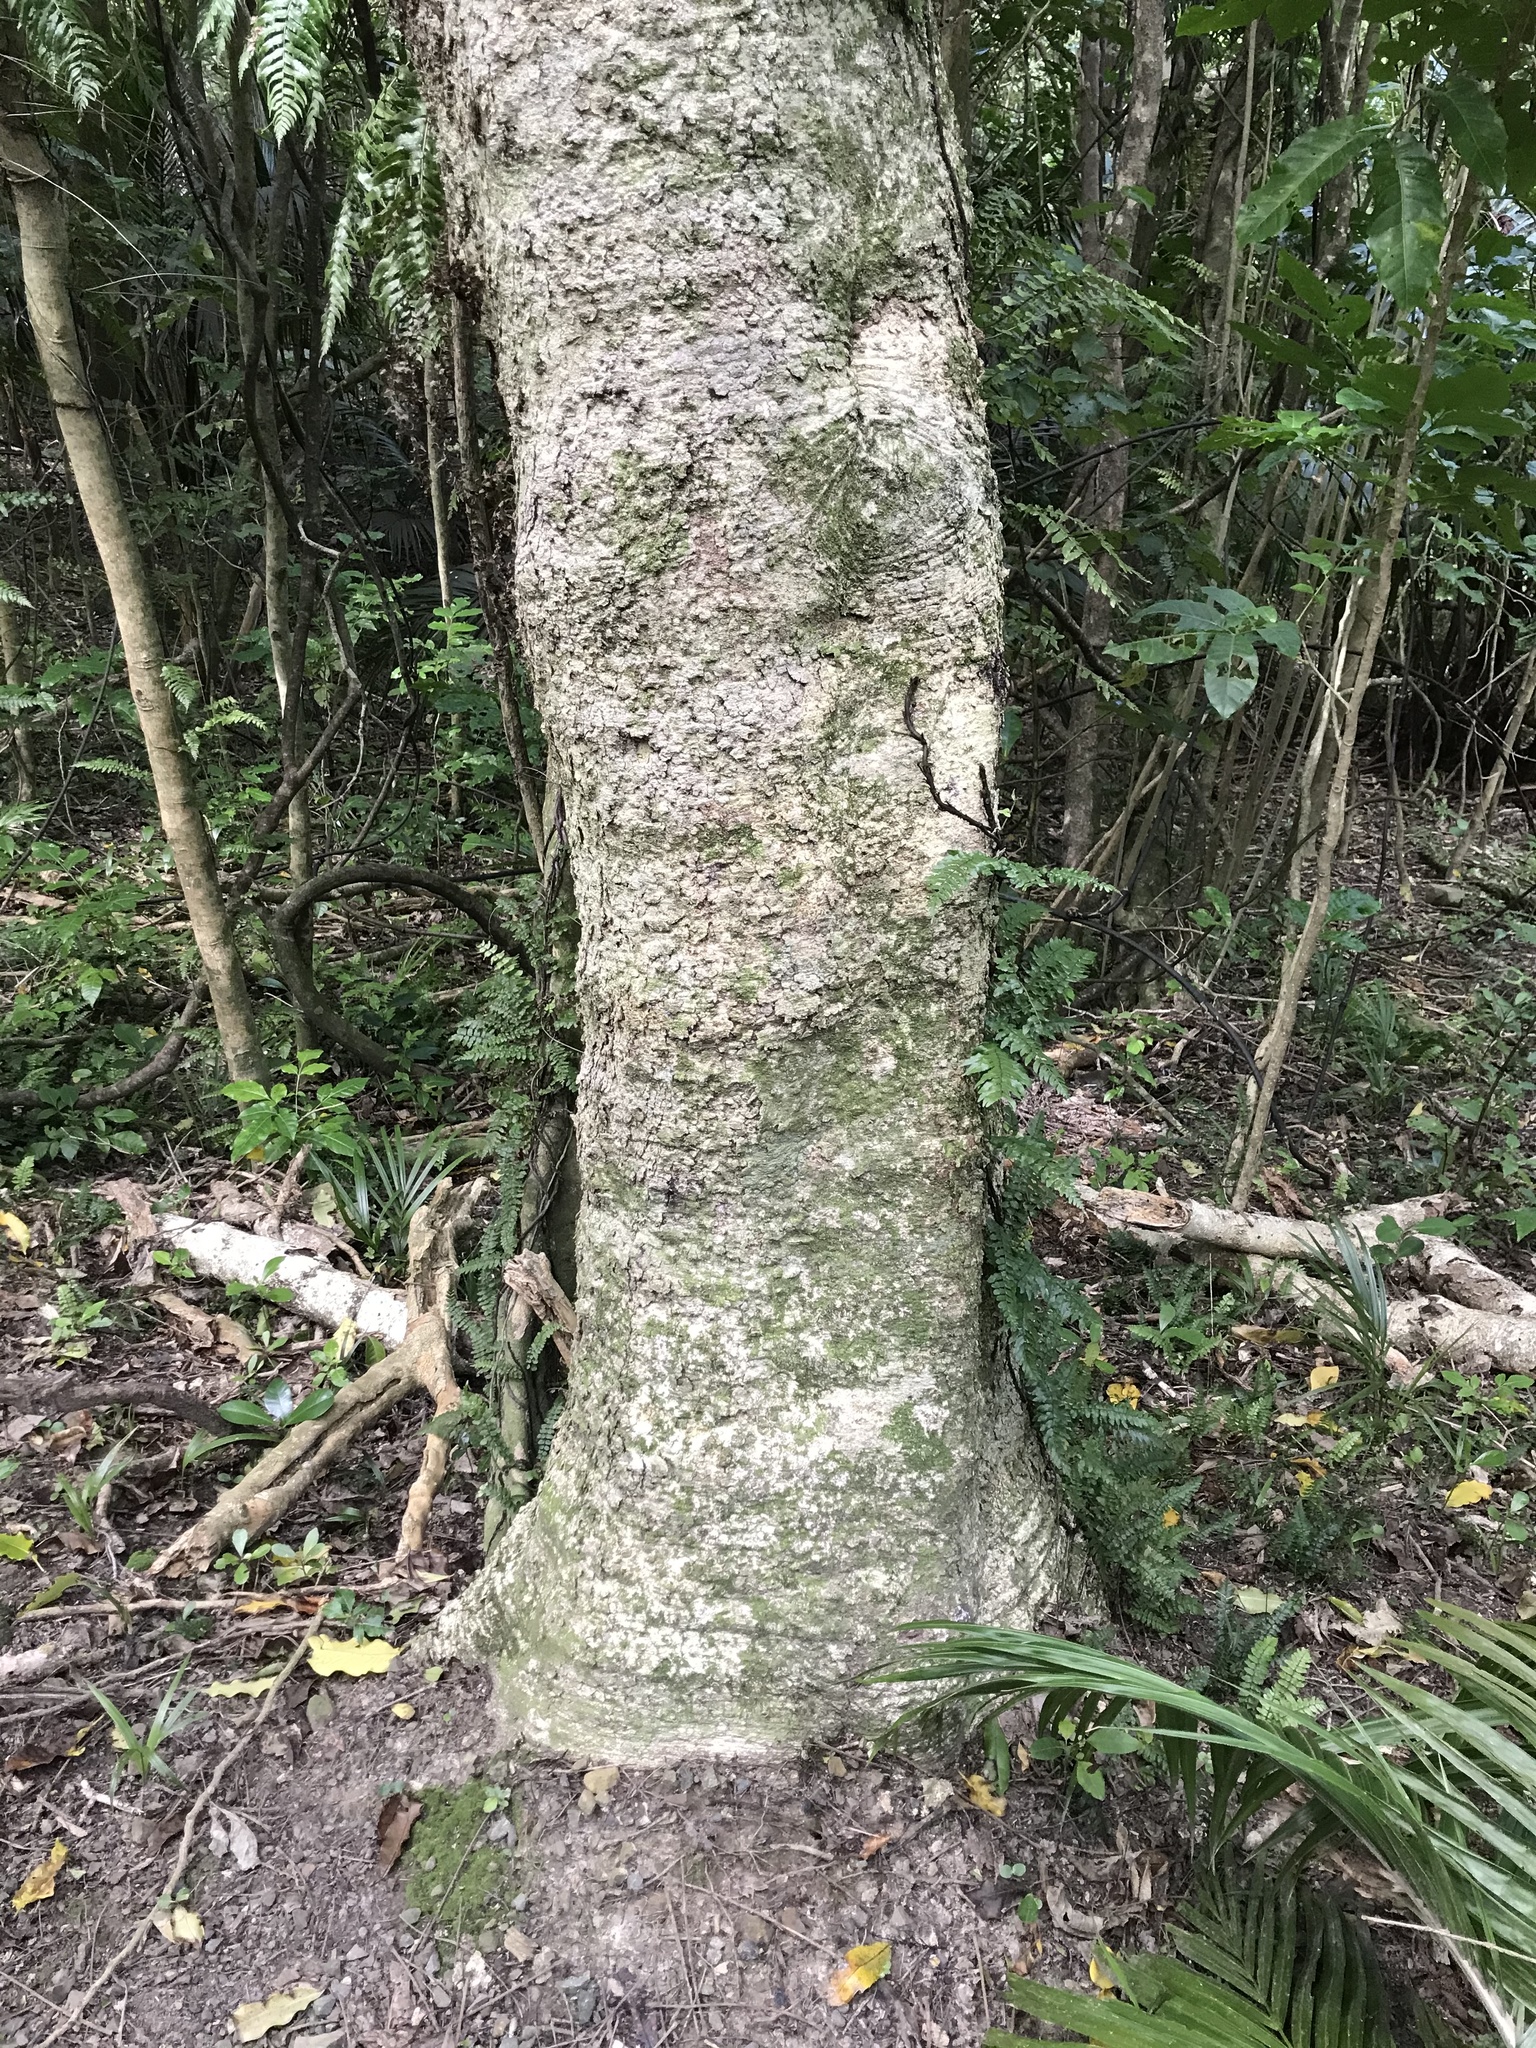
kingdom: Plantae
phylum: Tracheophyta
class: Magnoliopsida
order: Apiales
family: Pittosporaceae
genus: Pittosporum
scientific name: Pittosporum eugenioides
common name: Lemonwood
